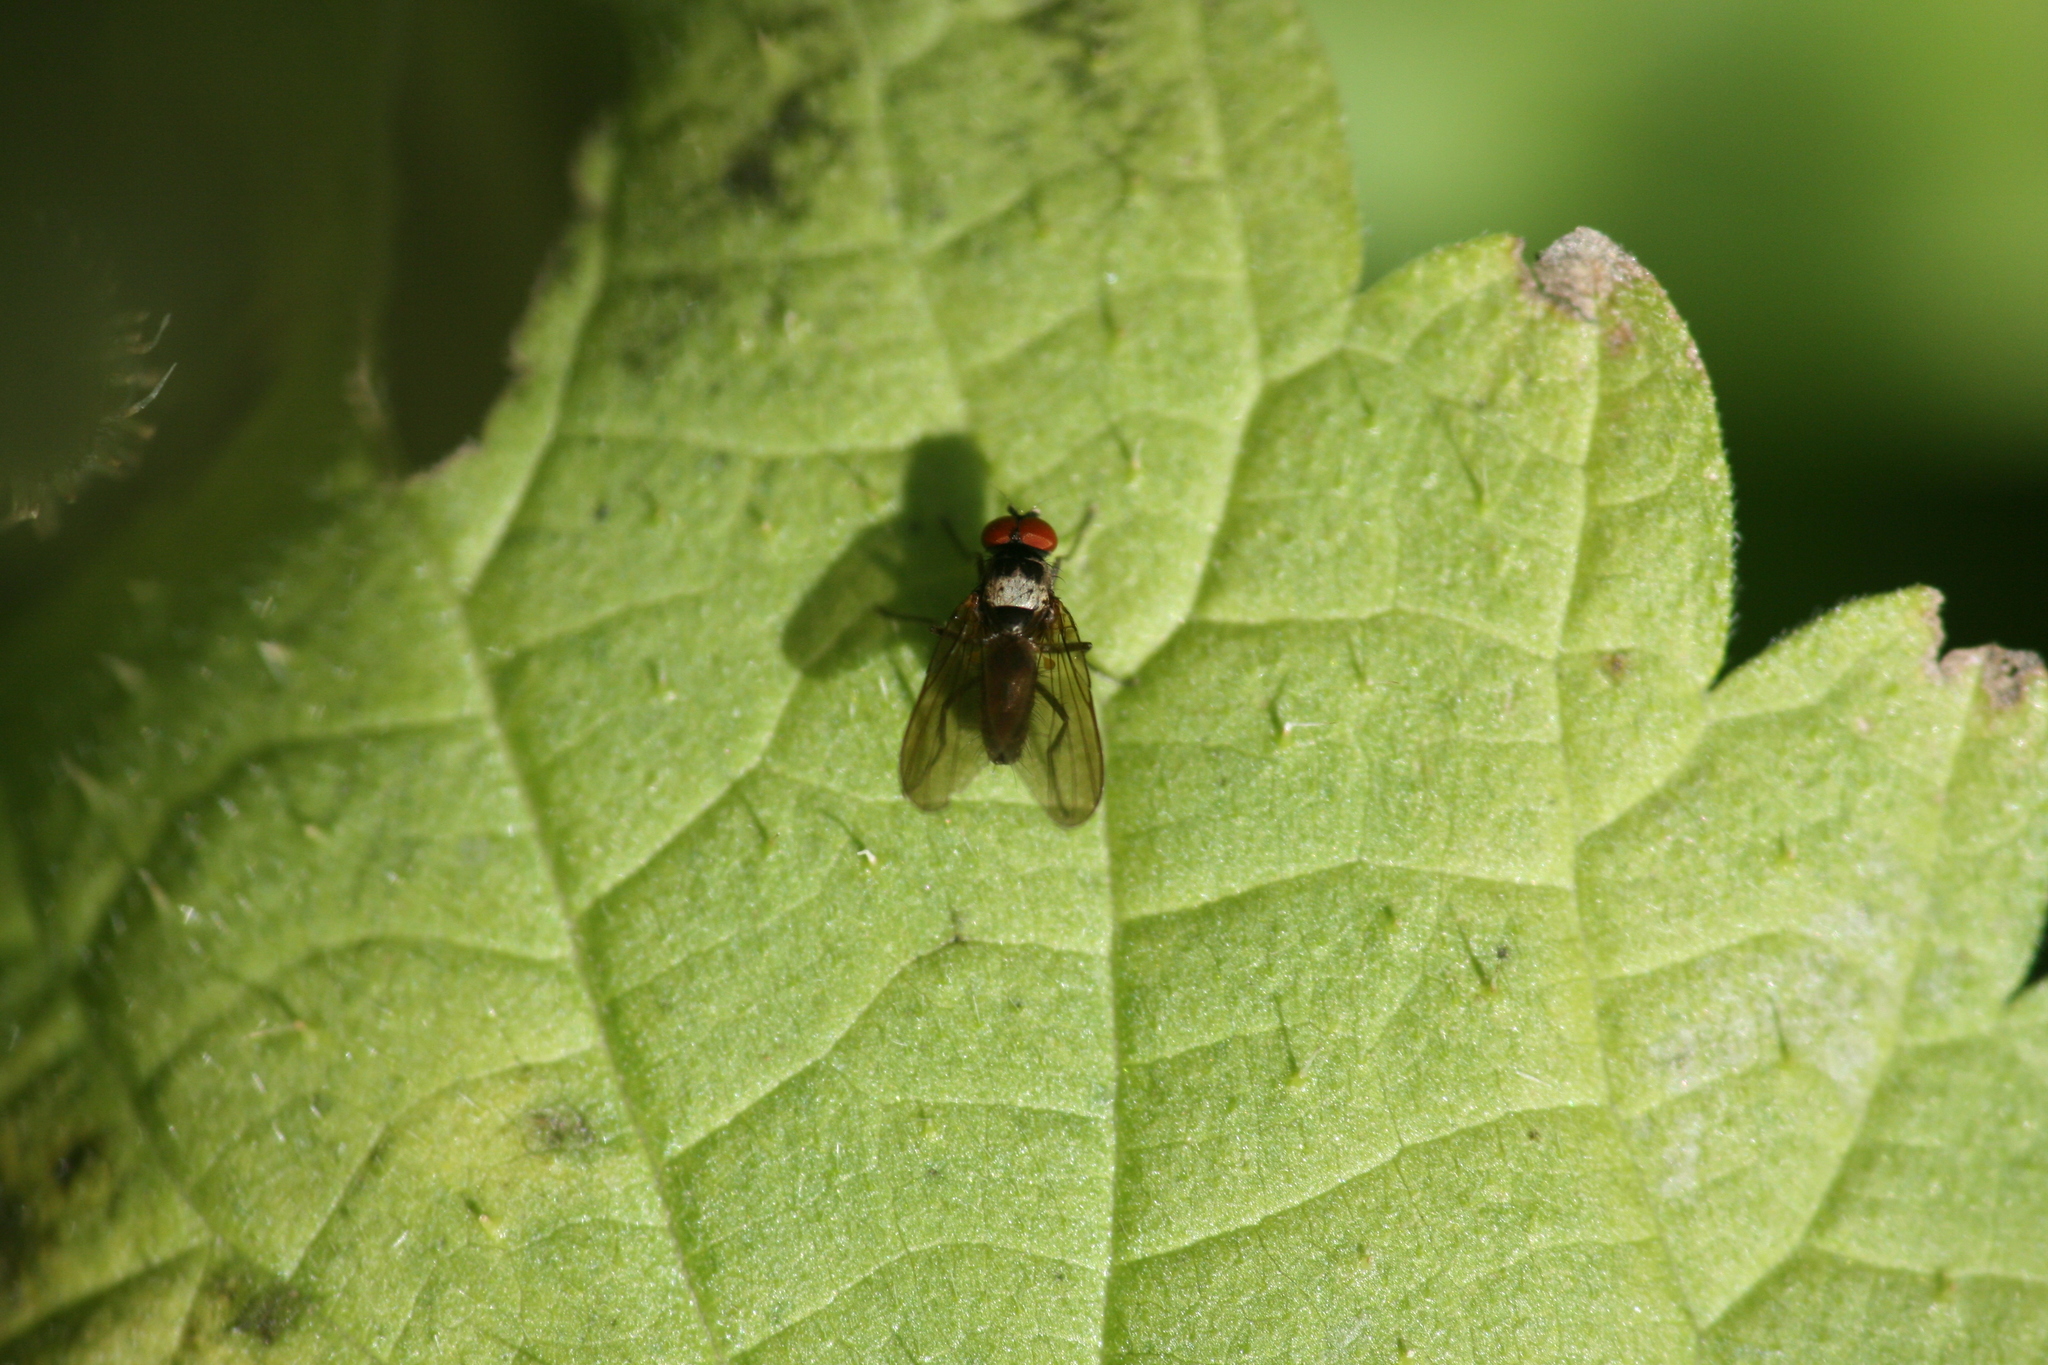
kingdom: Animalia
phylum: Arthropoda
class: Insecta
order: Diptera
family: Muscidae
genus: Azelia
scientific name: Azelia nebulosa
